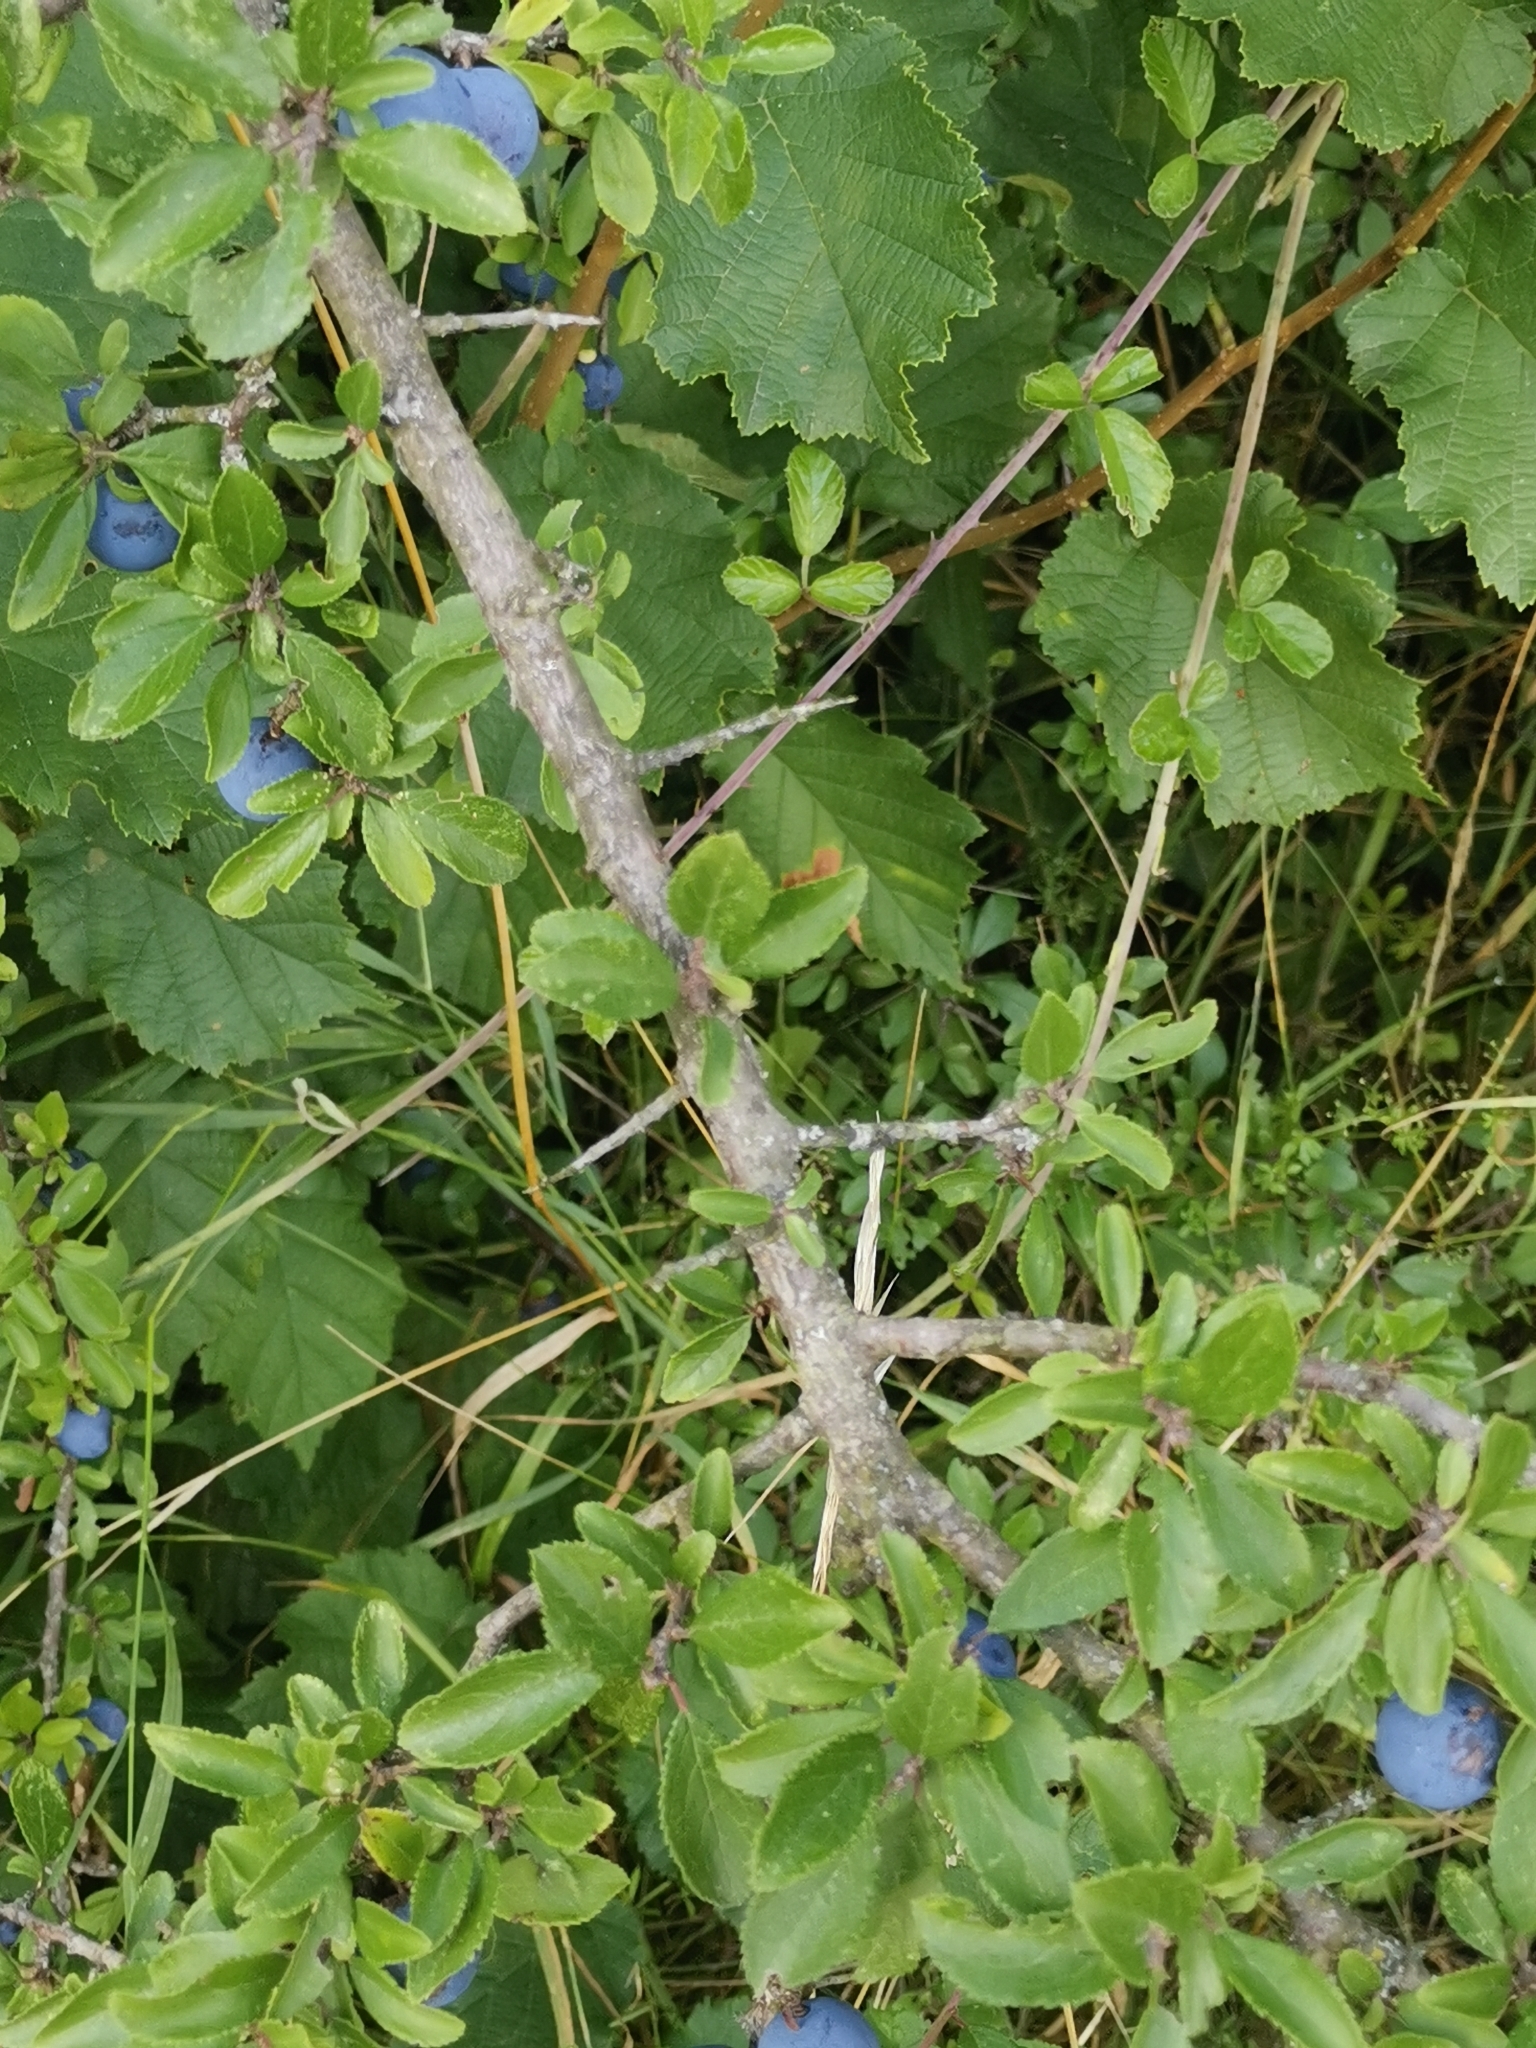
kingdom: Plantae
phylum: Tracheophyta
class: Magnoliopsida
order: Rosales
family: Rosaceae
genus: Prunus
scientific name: Prunus spinosa
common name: Blackthorn
